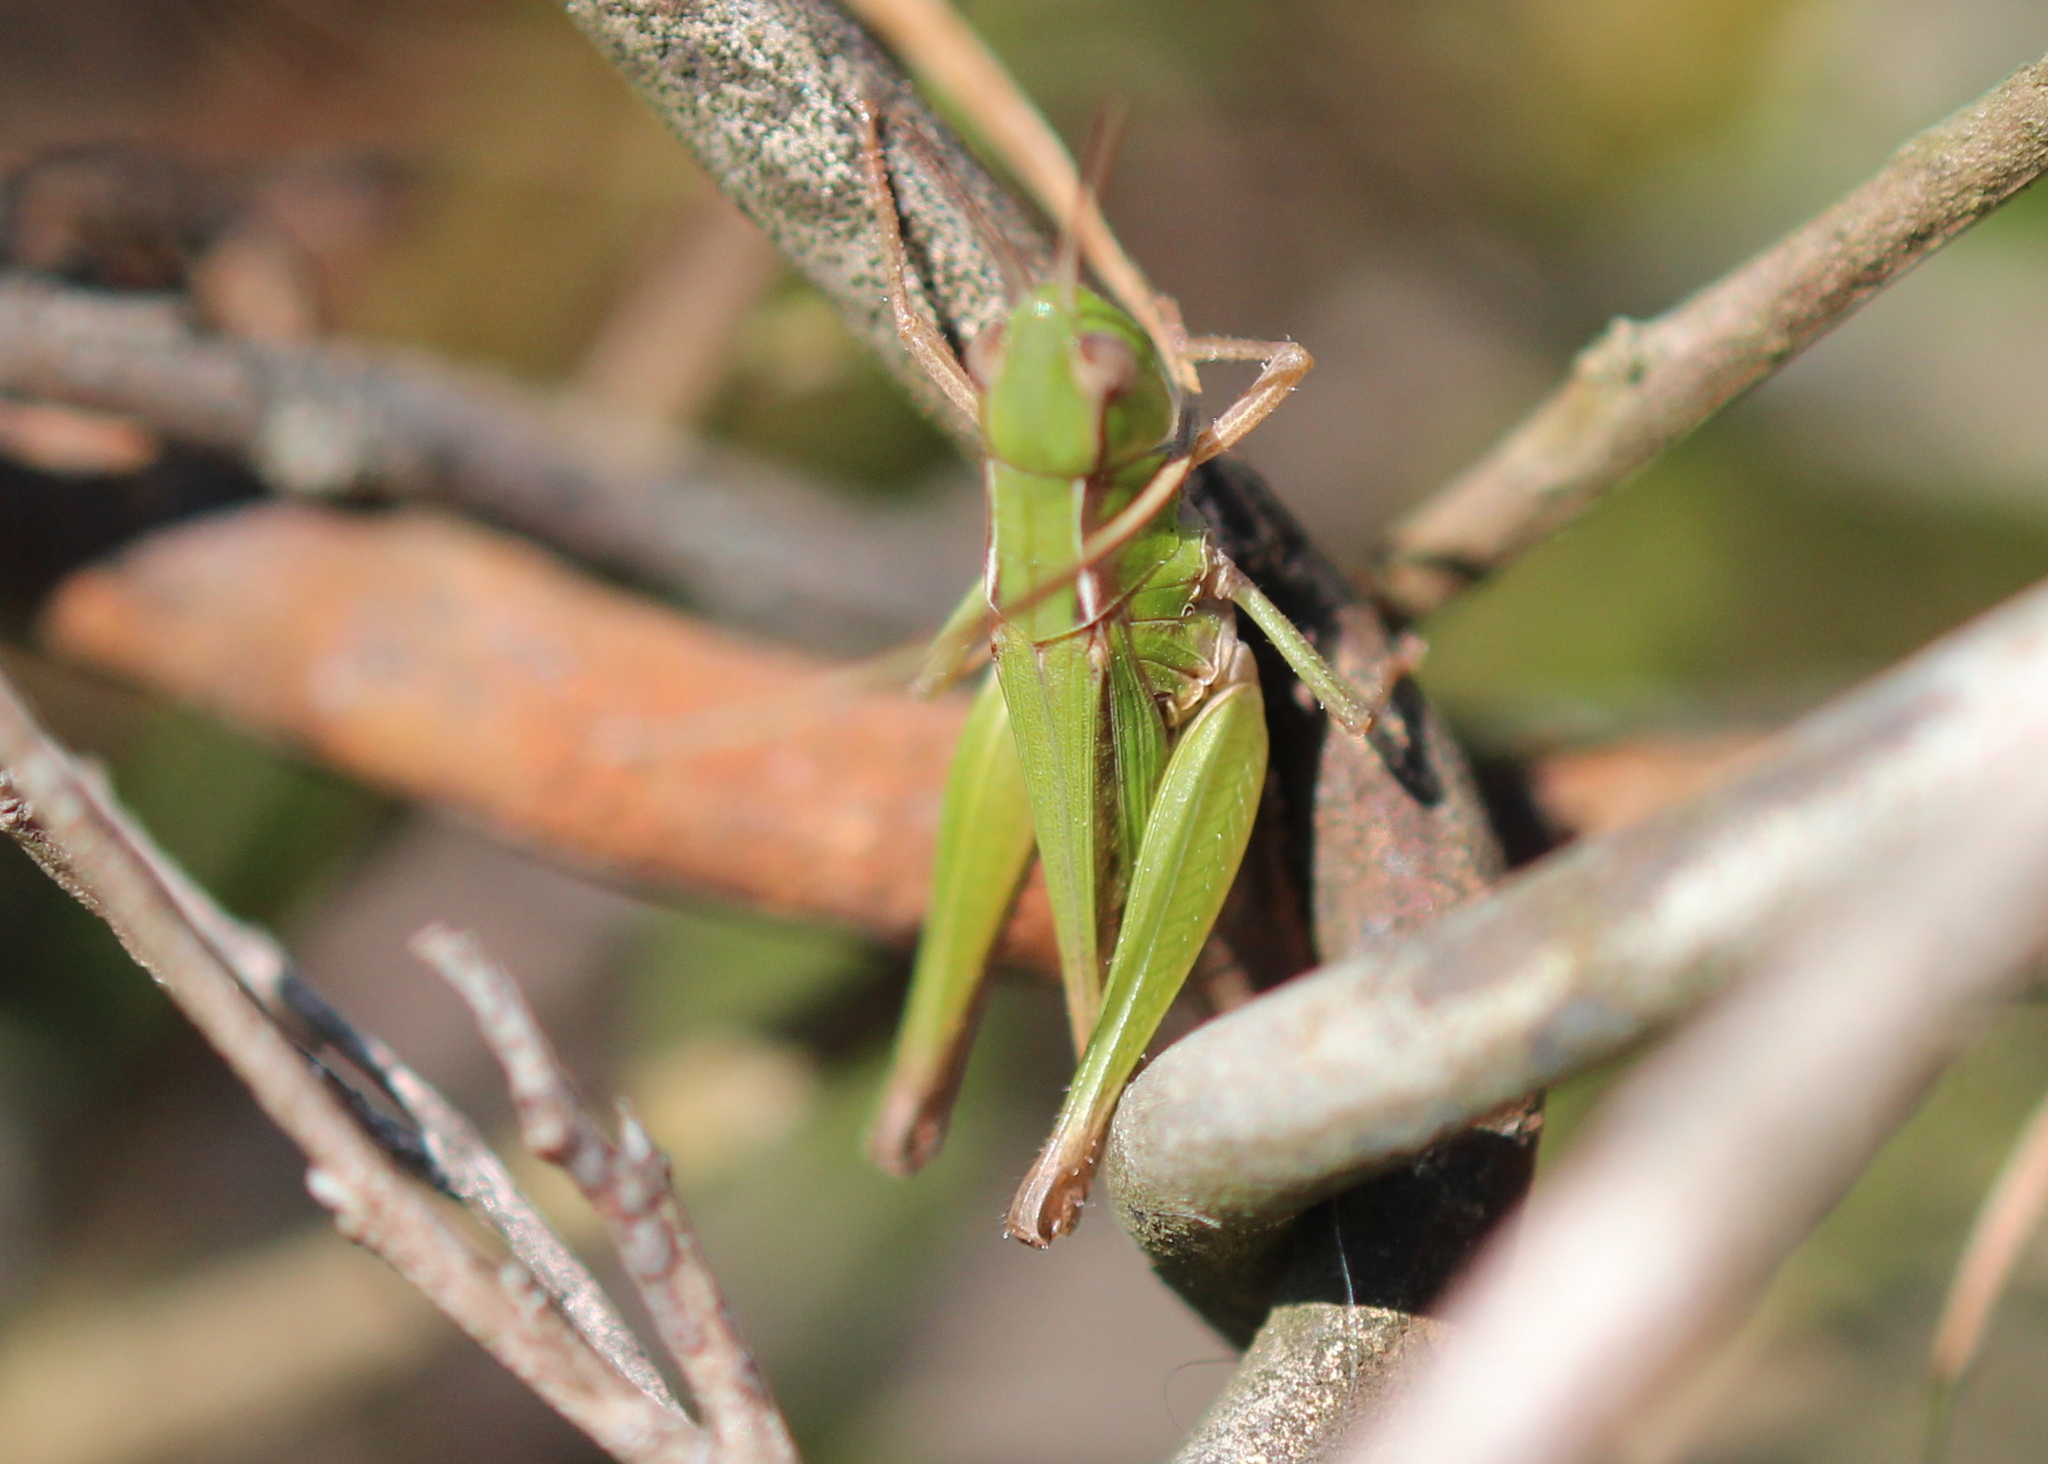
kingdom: Animalia
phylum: Arthropoda
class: Insecta
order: Orthoptera
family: Acrididae
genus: Orphulella
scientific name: Orphulella speciosa
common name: Pasture grasshopper
